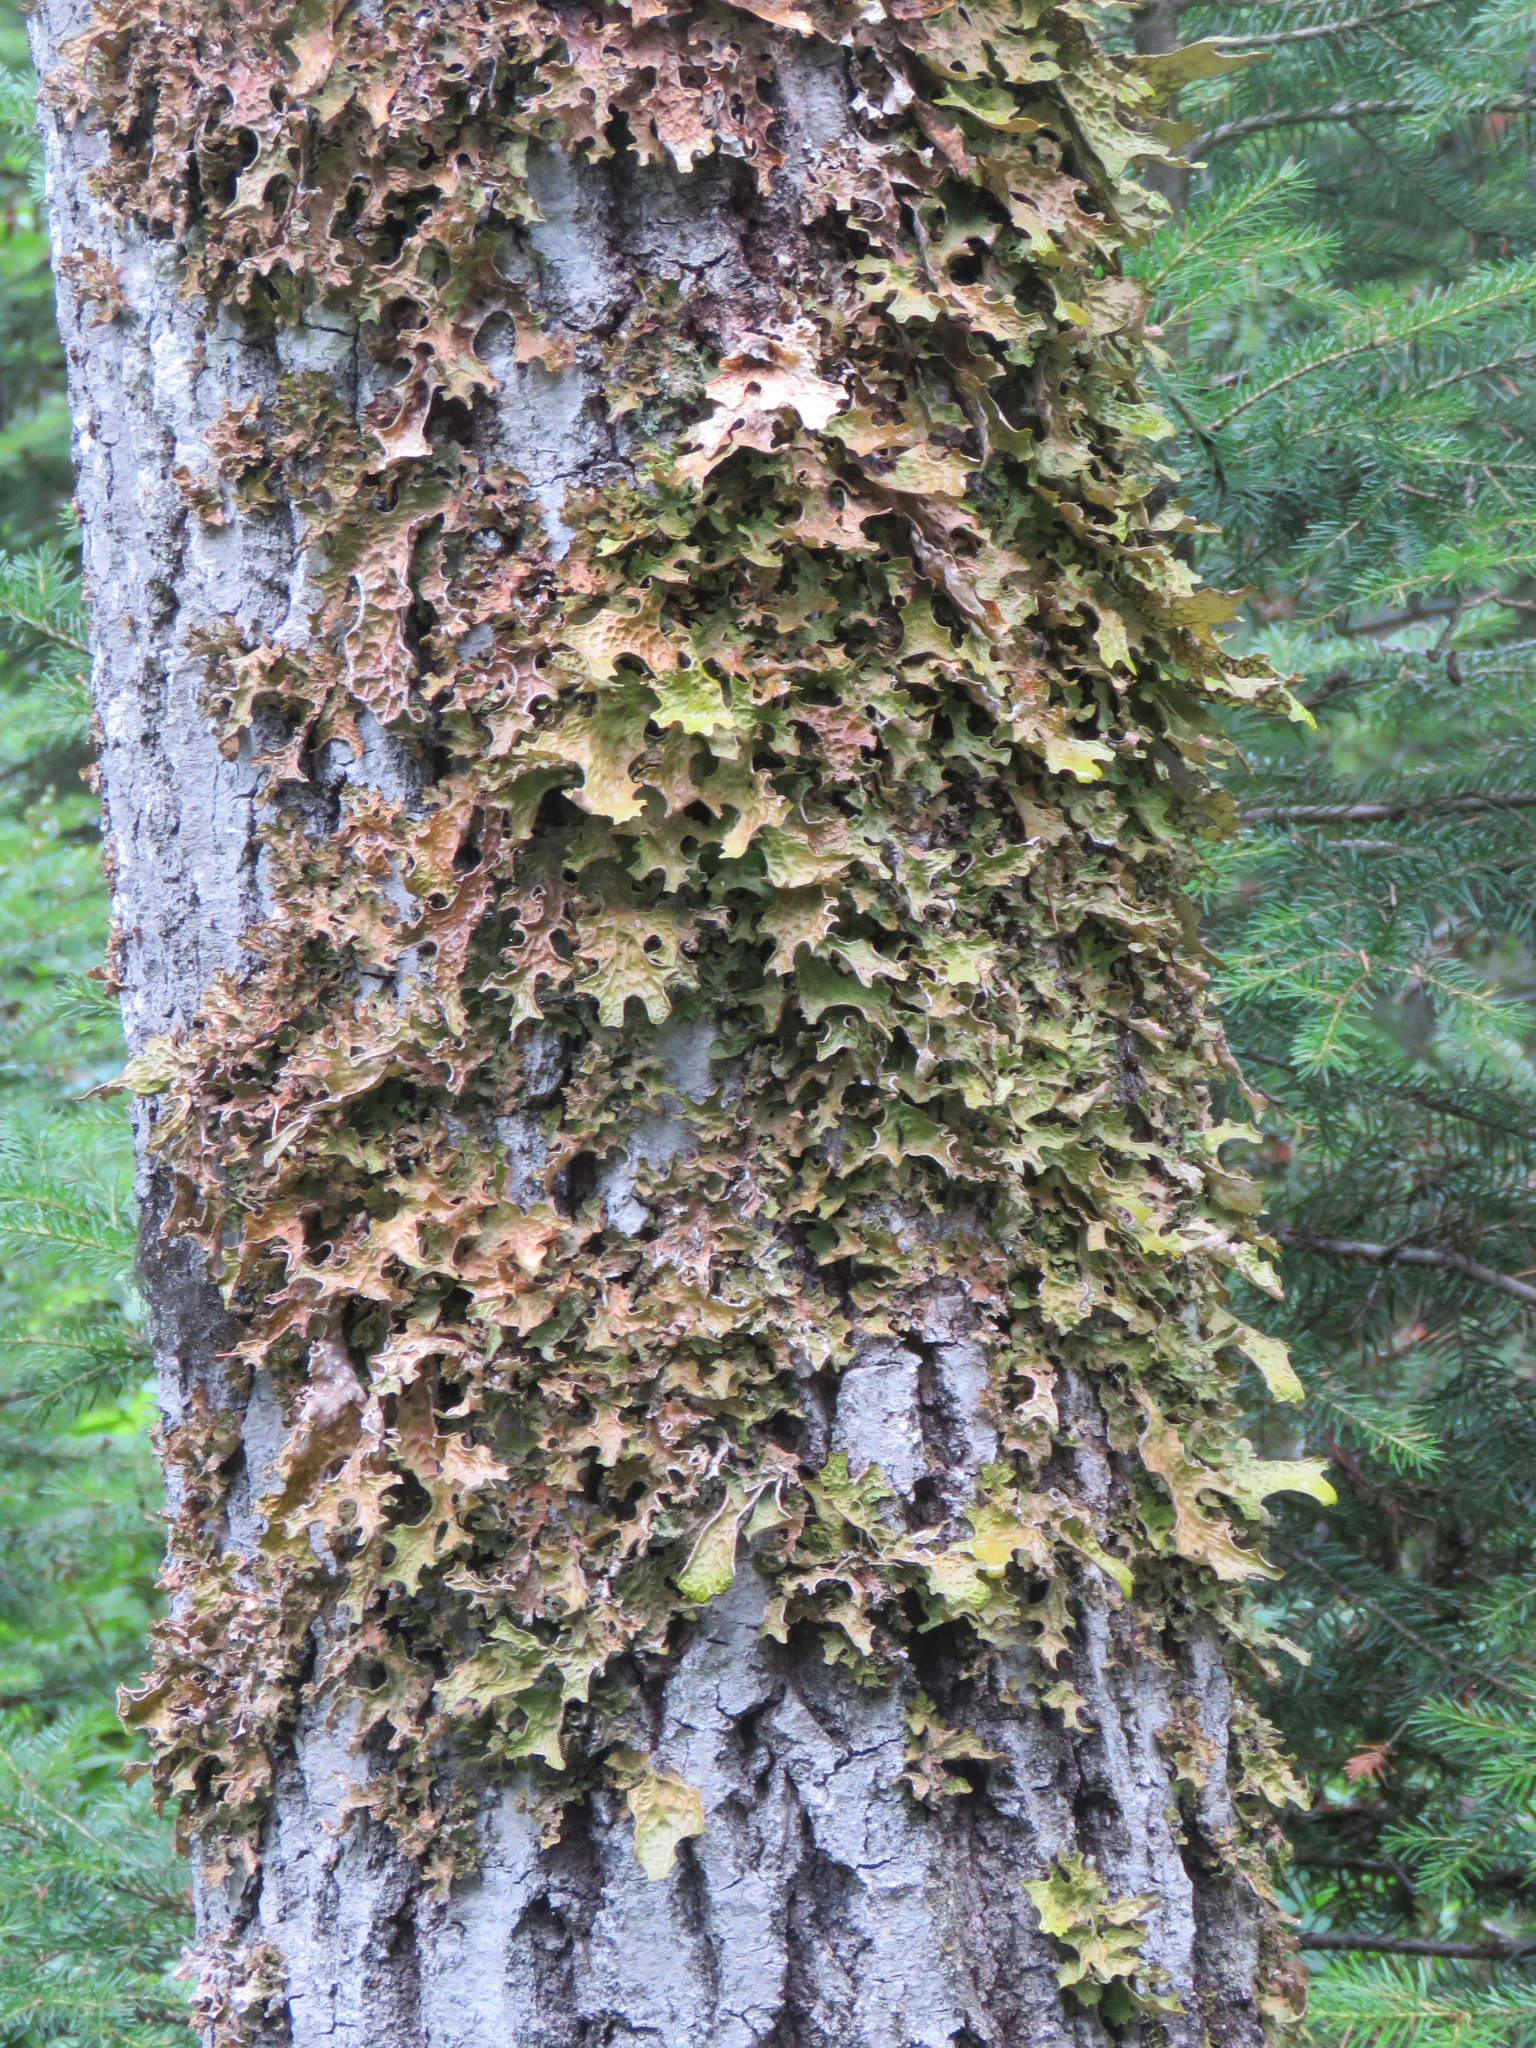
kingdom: Fungi
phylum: Ascomycota
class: Lecanoromycetes
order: Peltigerales
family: Lobariaceae
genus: Lobaria
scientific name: Lobaria pulmonaria
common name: Lungwort
